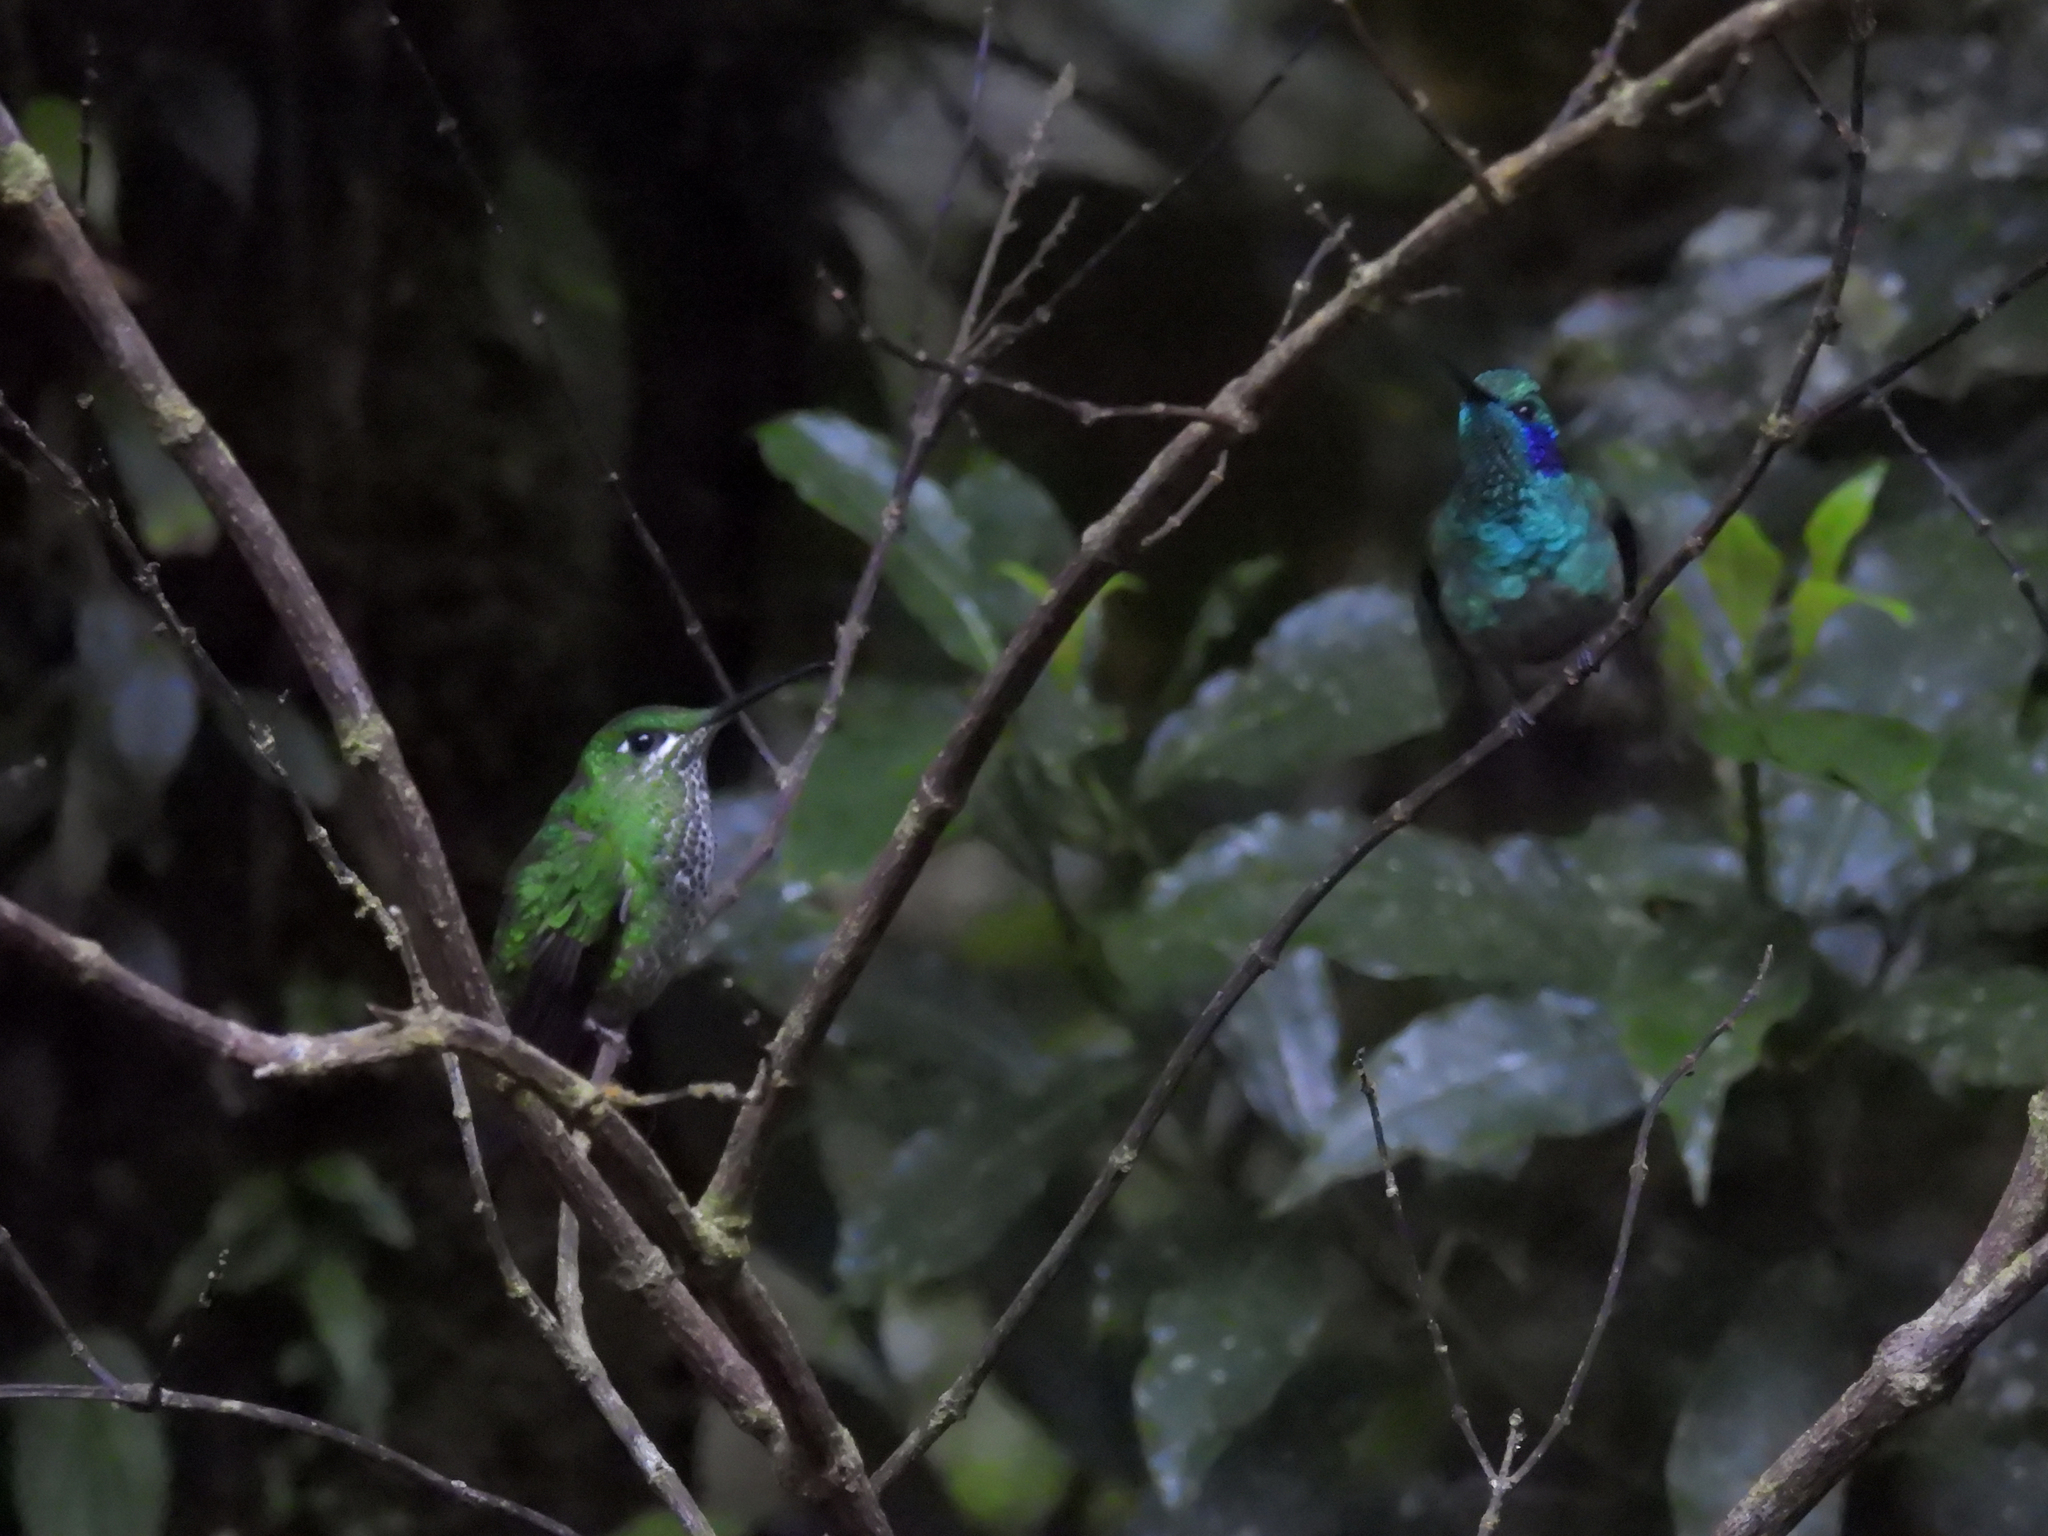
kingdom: Animalia
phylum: Chordata
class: Aves
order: Apodiformes
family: Trochilidae
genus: Heliodoxa
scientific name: Heliodoxa jacula
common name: Green-crowned brilliant
